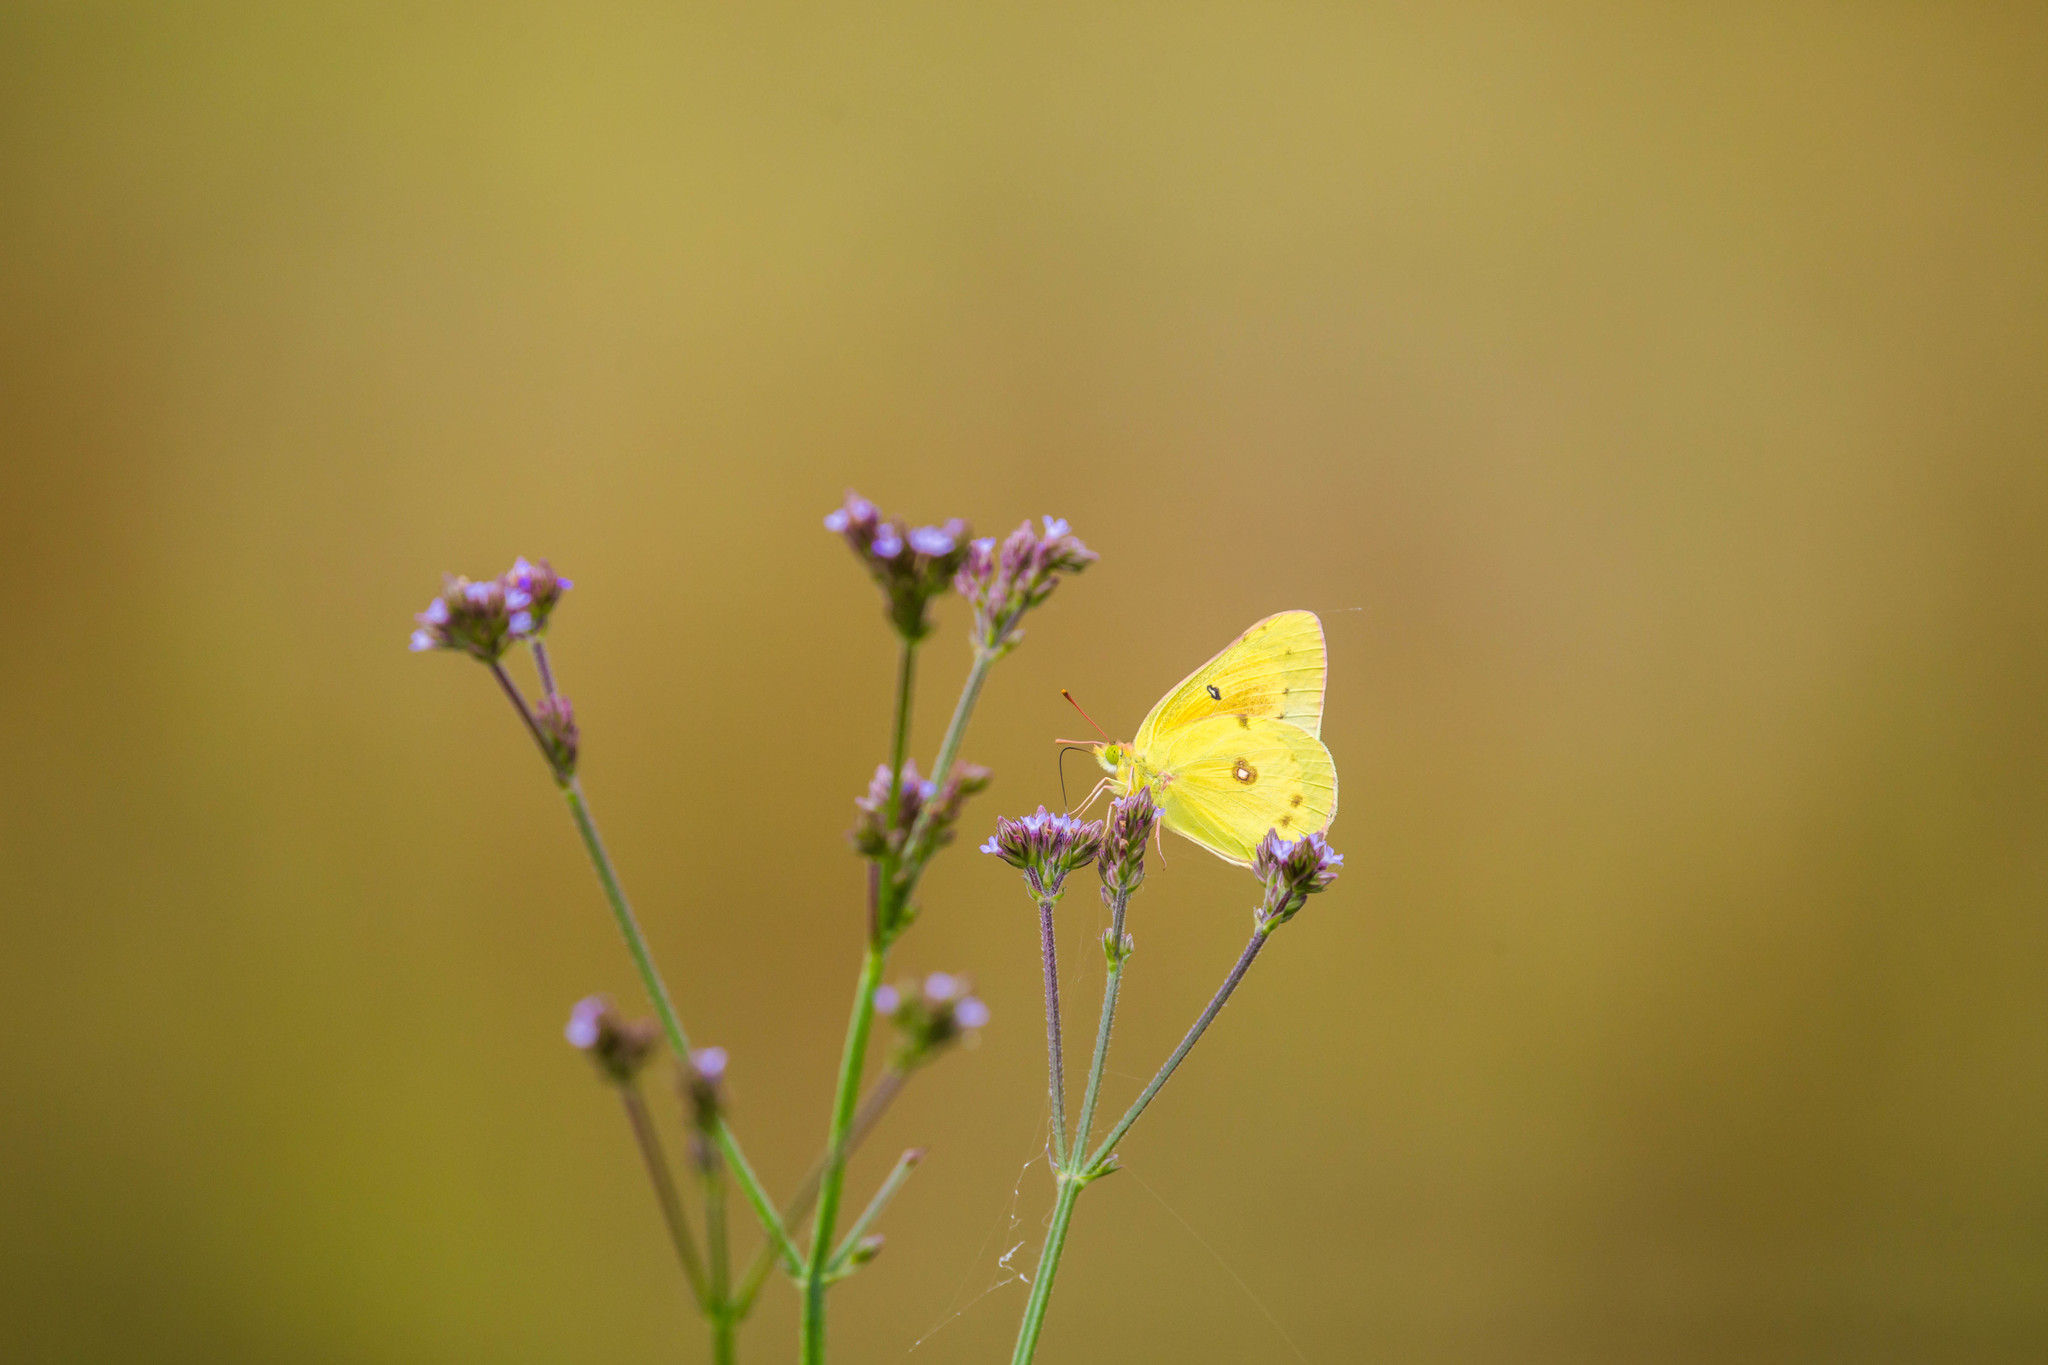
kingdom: Animalia
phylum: Arthropoda
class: Insecta
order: Lepidoptera
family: Pieridae
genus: Colias
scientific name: Colias eurytheme
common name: Alfalfa butterfly
